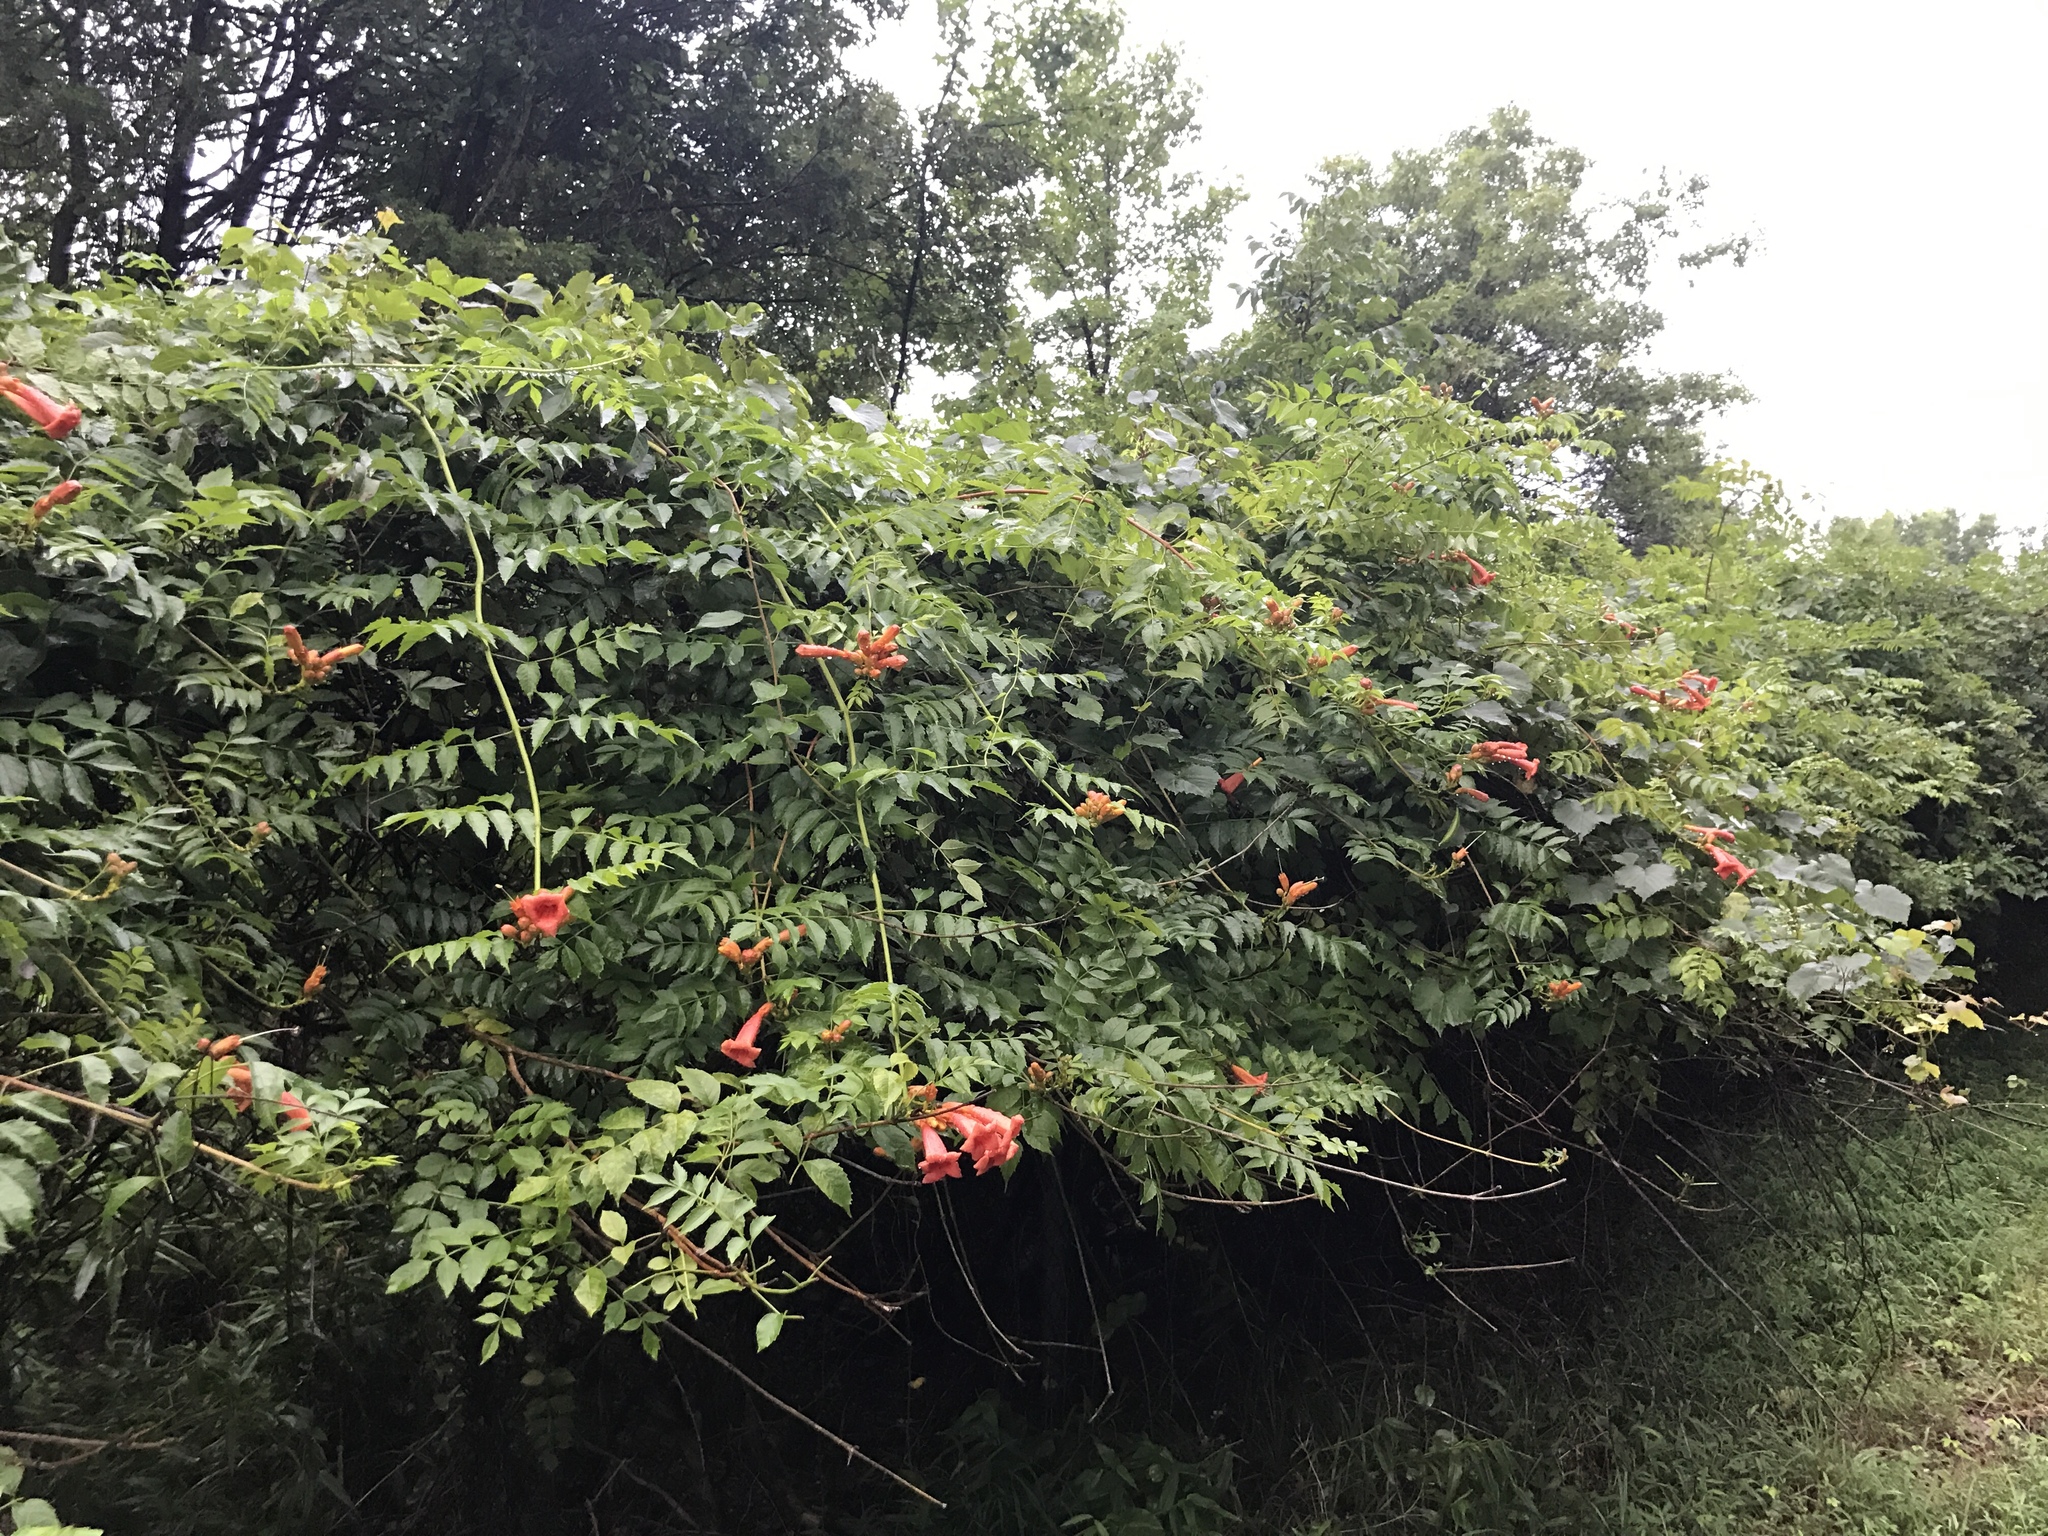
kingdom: Plantae
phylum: Tracheophyta
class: Magnoliopsida
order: Lamiales
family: Bignoniaceae
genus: Campsis
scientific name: Campsis radicans
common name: Trumpet-creeper
